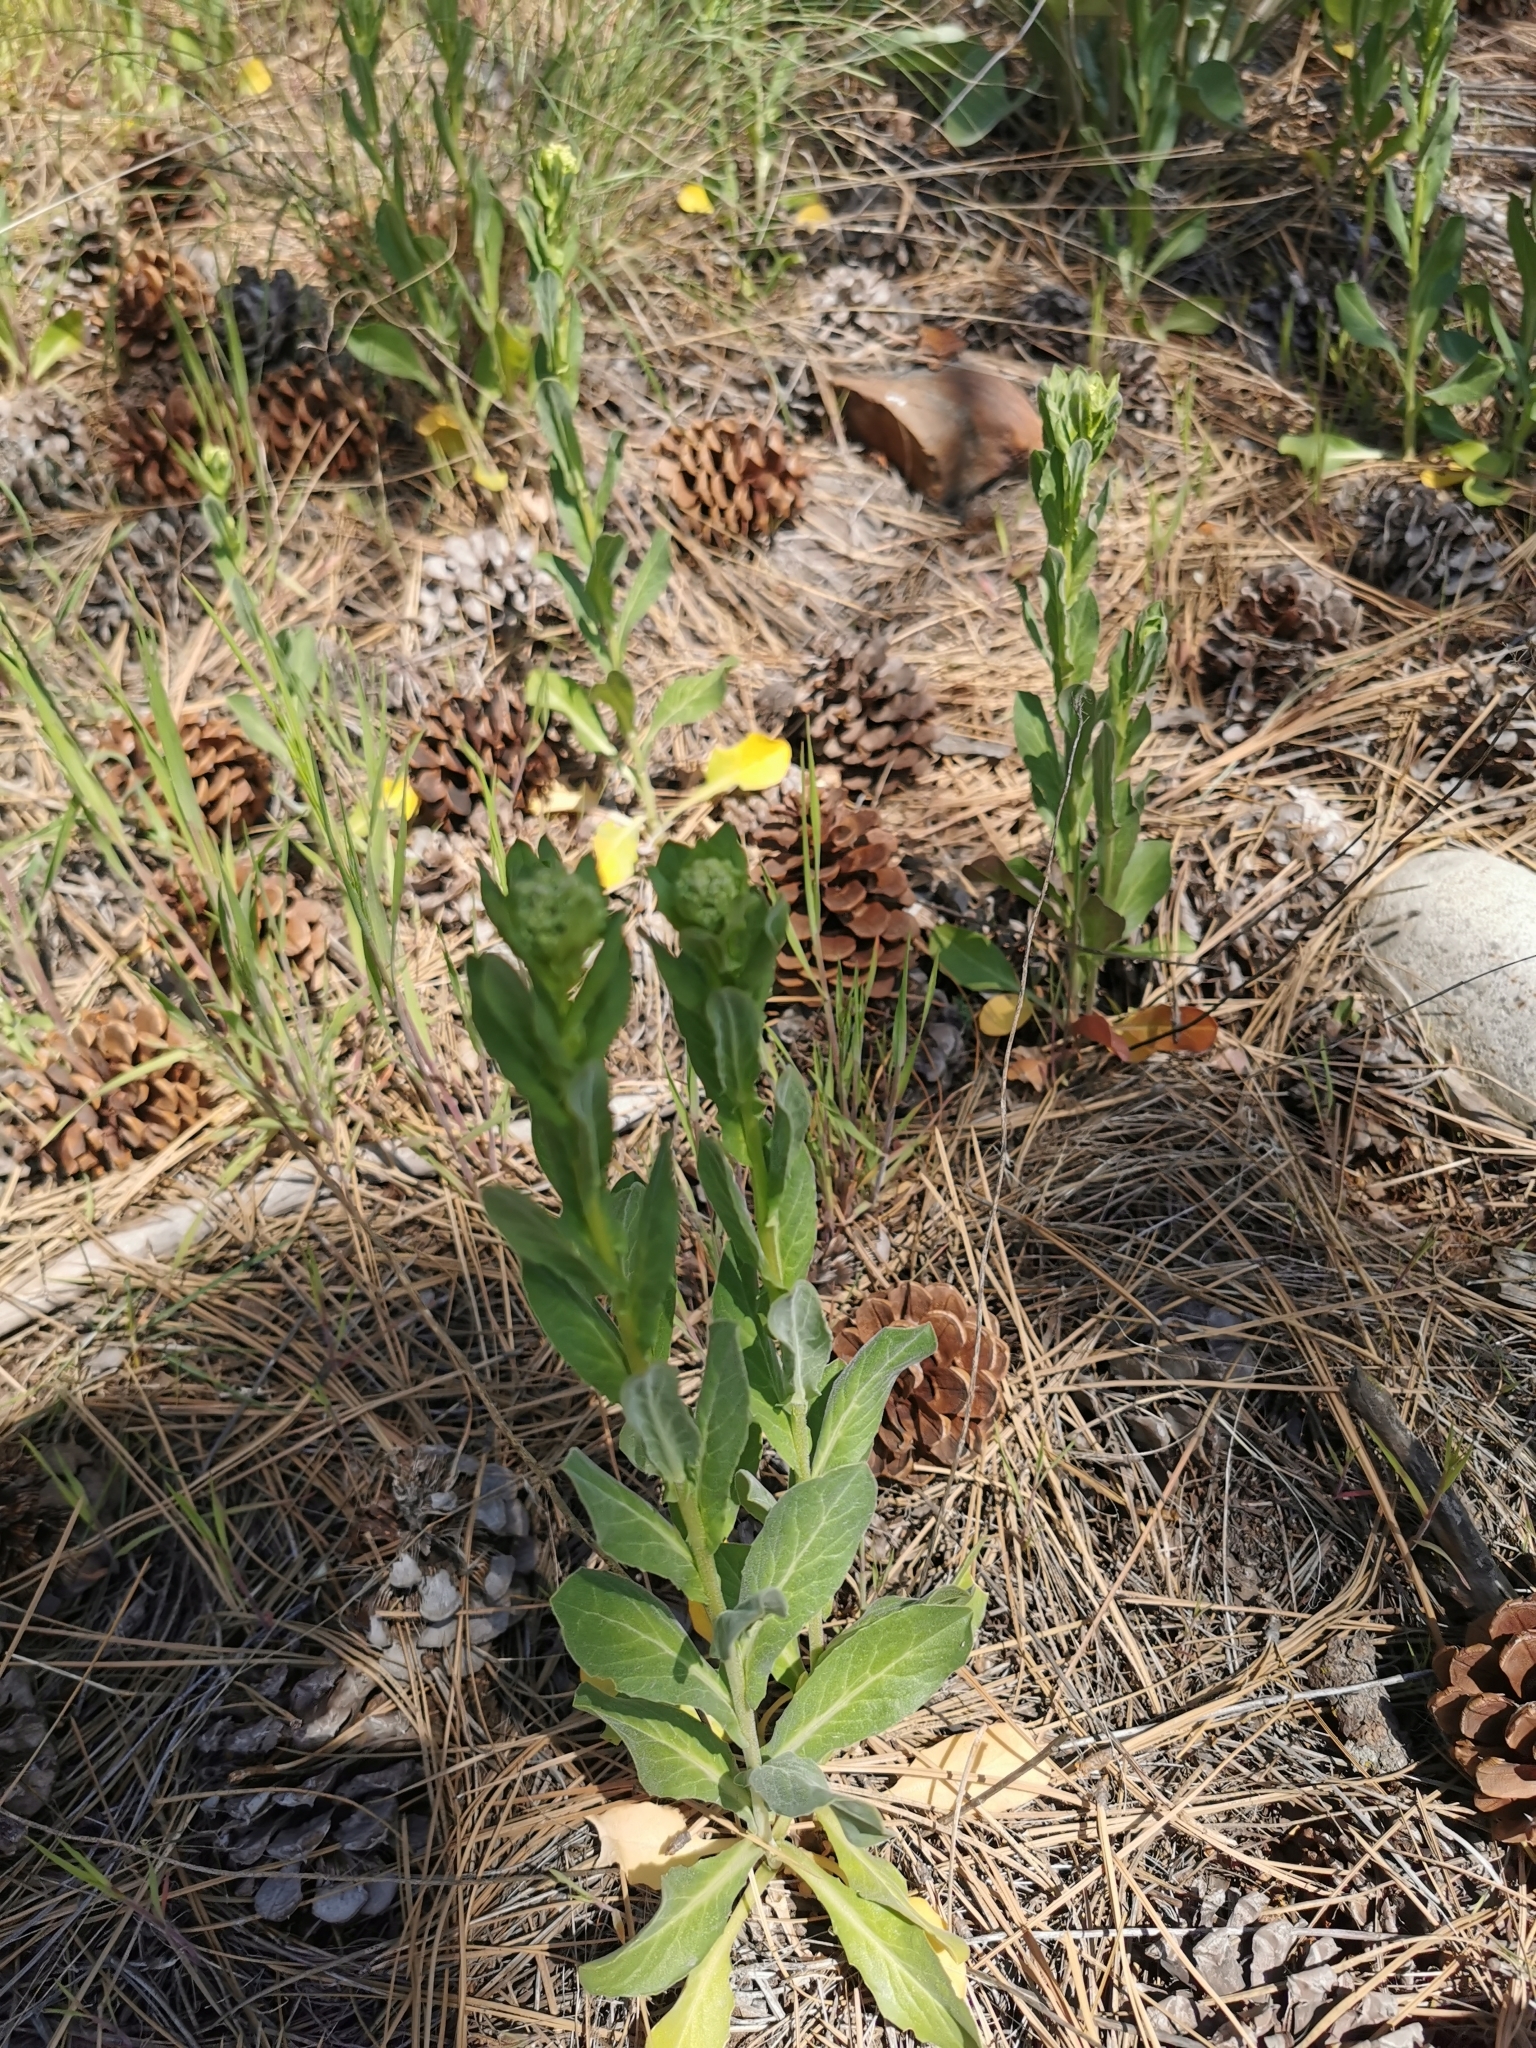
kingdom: Plantae
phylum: Tracheophyta
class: Magnoliopsida
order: Brassicales
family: Brassicaceae
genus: Lepidium
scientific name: Lepidium draba
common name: Hoary cress
